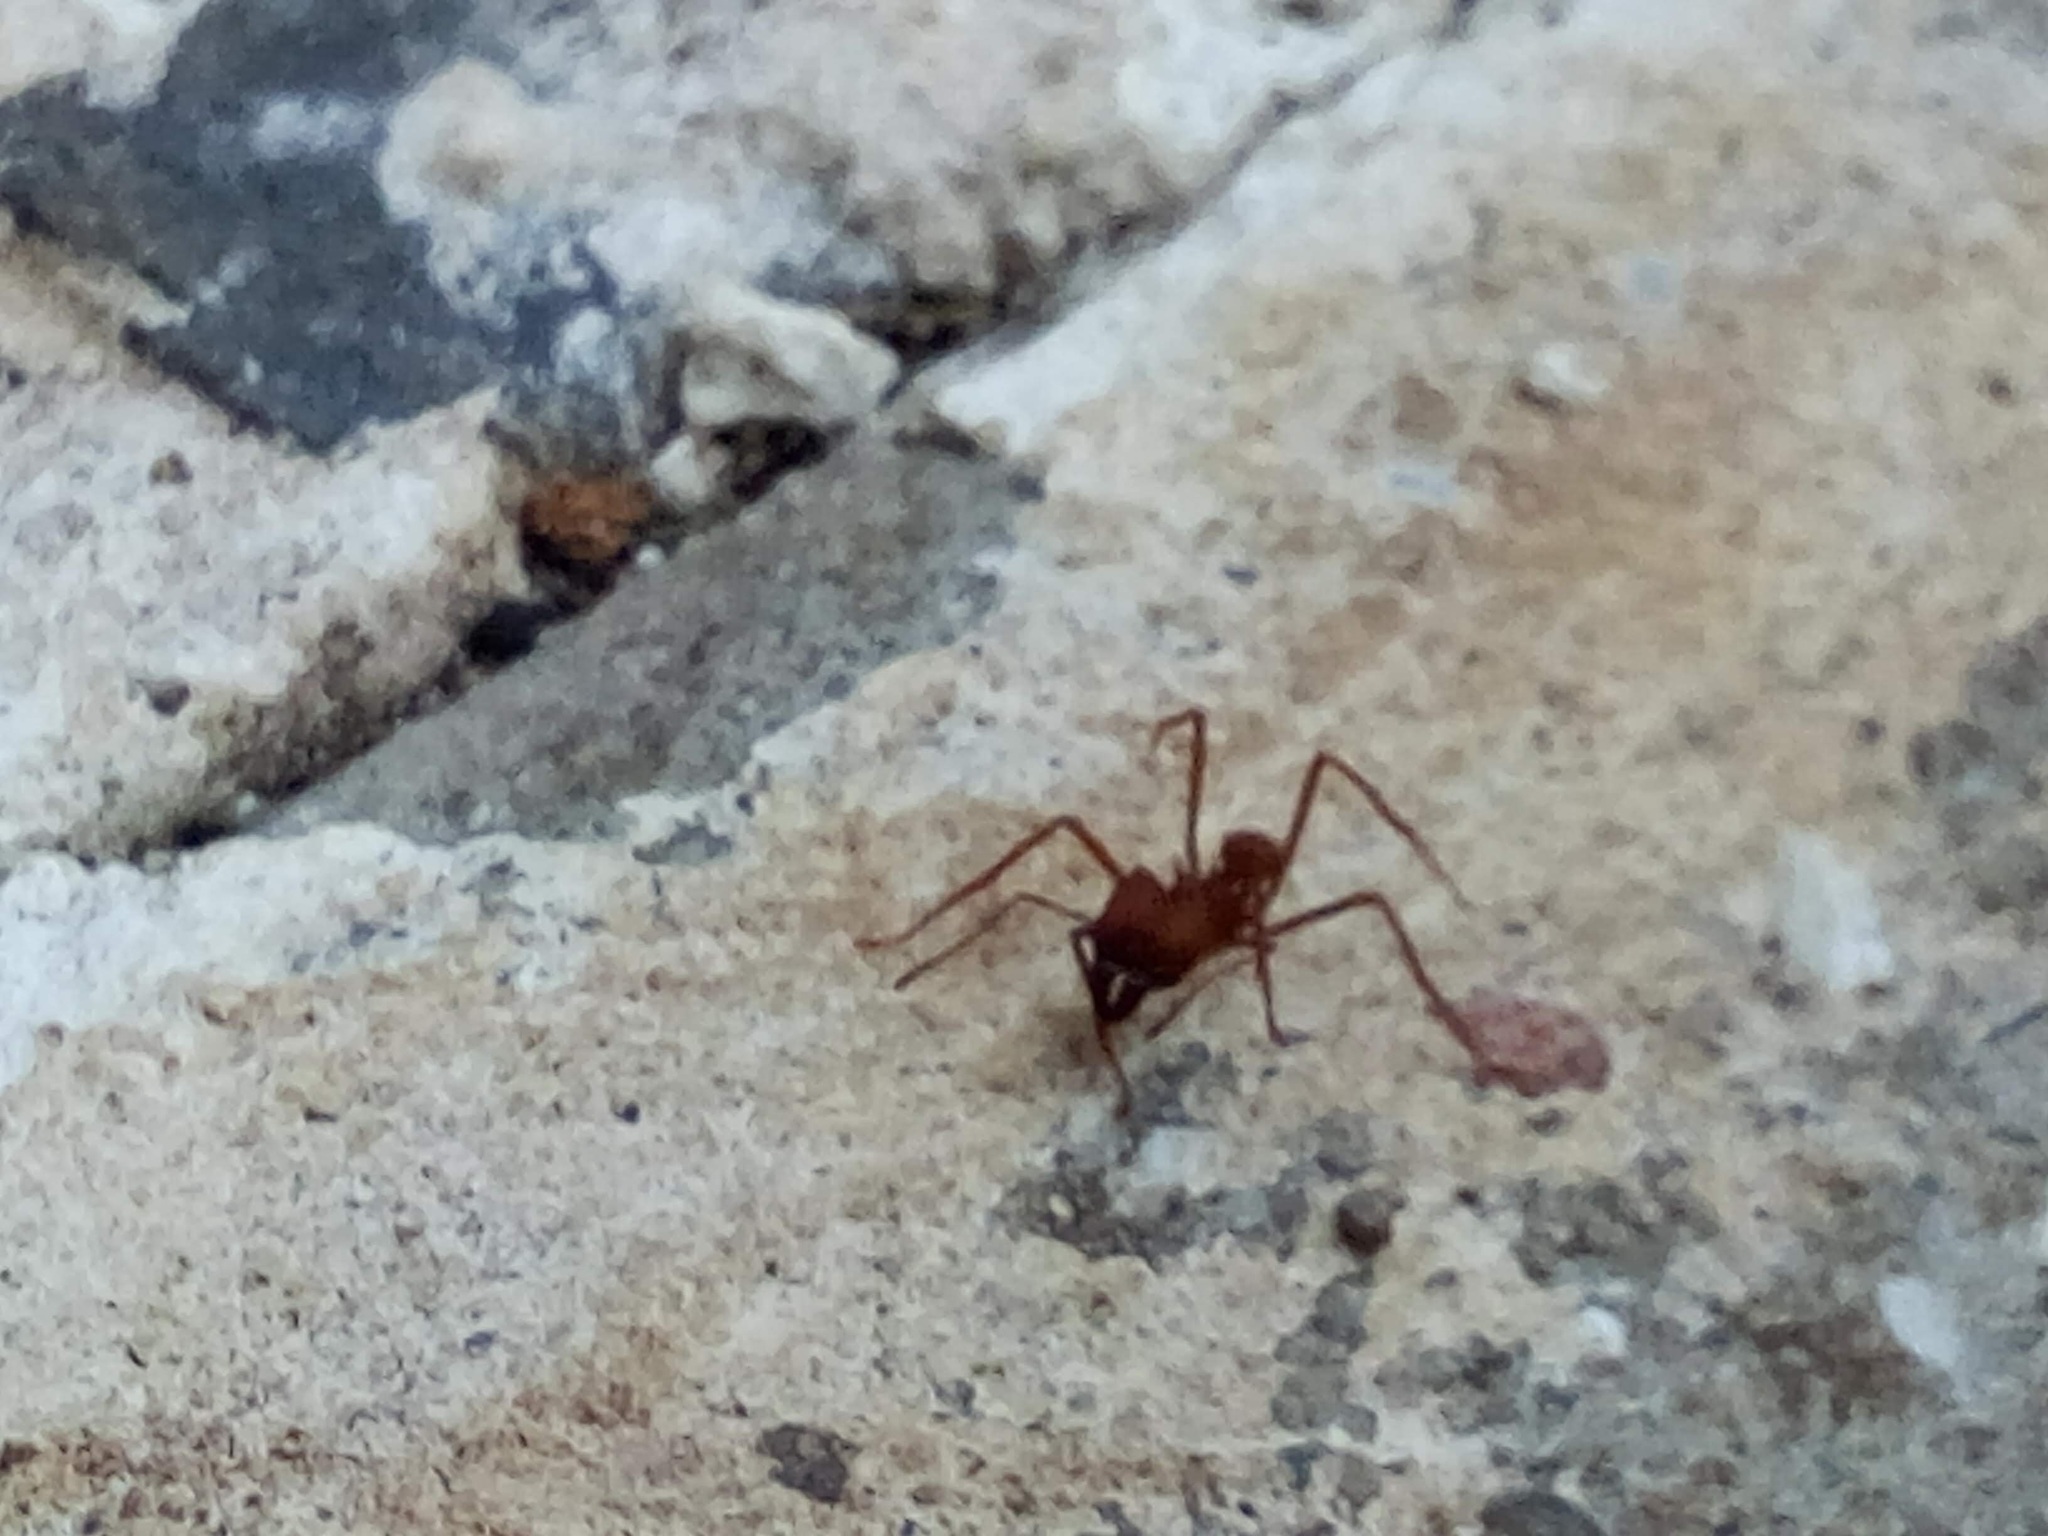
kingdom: Animalia
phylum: Arthropoda
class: Insecta
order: Hymenoptera
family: Formicidae
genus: Atta
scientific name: Atta cephalotes
